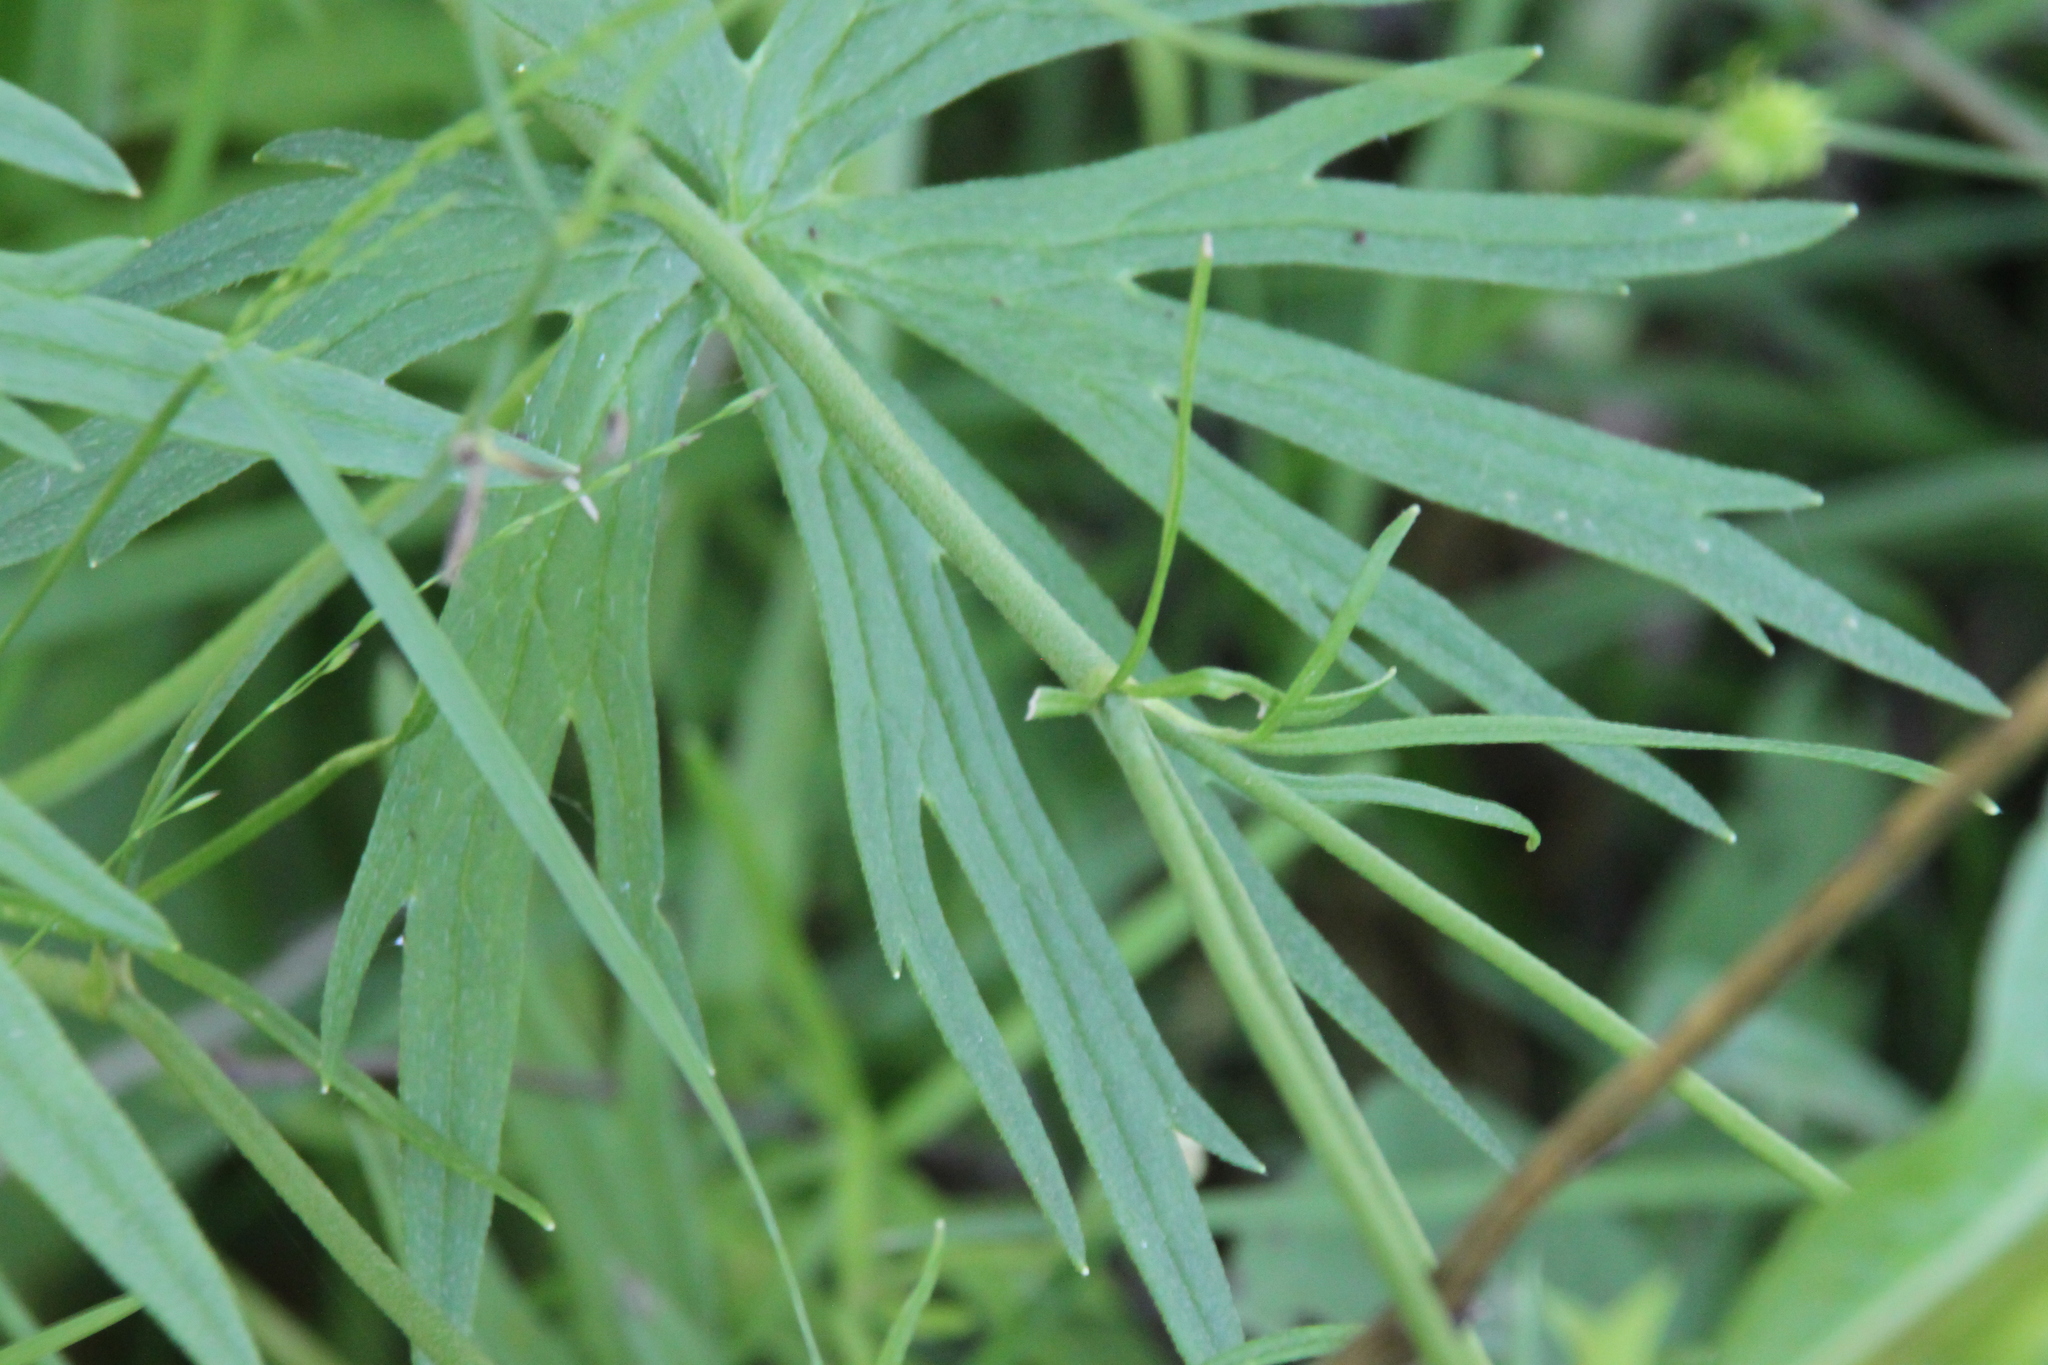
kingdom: Plantae
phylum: Tracheophyta
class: Magnoliopsida
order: Ranunculales
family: Ranunculaceae
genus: Ranunculus
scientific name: Ranunculus acris
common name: Meadow buttercup
